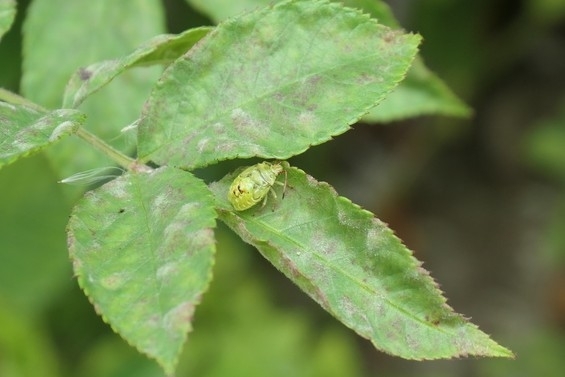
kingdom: Animalia
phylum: Arthropoda
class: Insecta
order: Hemiptera
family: Acanthosomatidae
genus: Elasmostethus
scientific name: Elasmostethus cruciatus
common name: Red-cross shield bug
